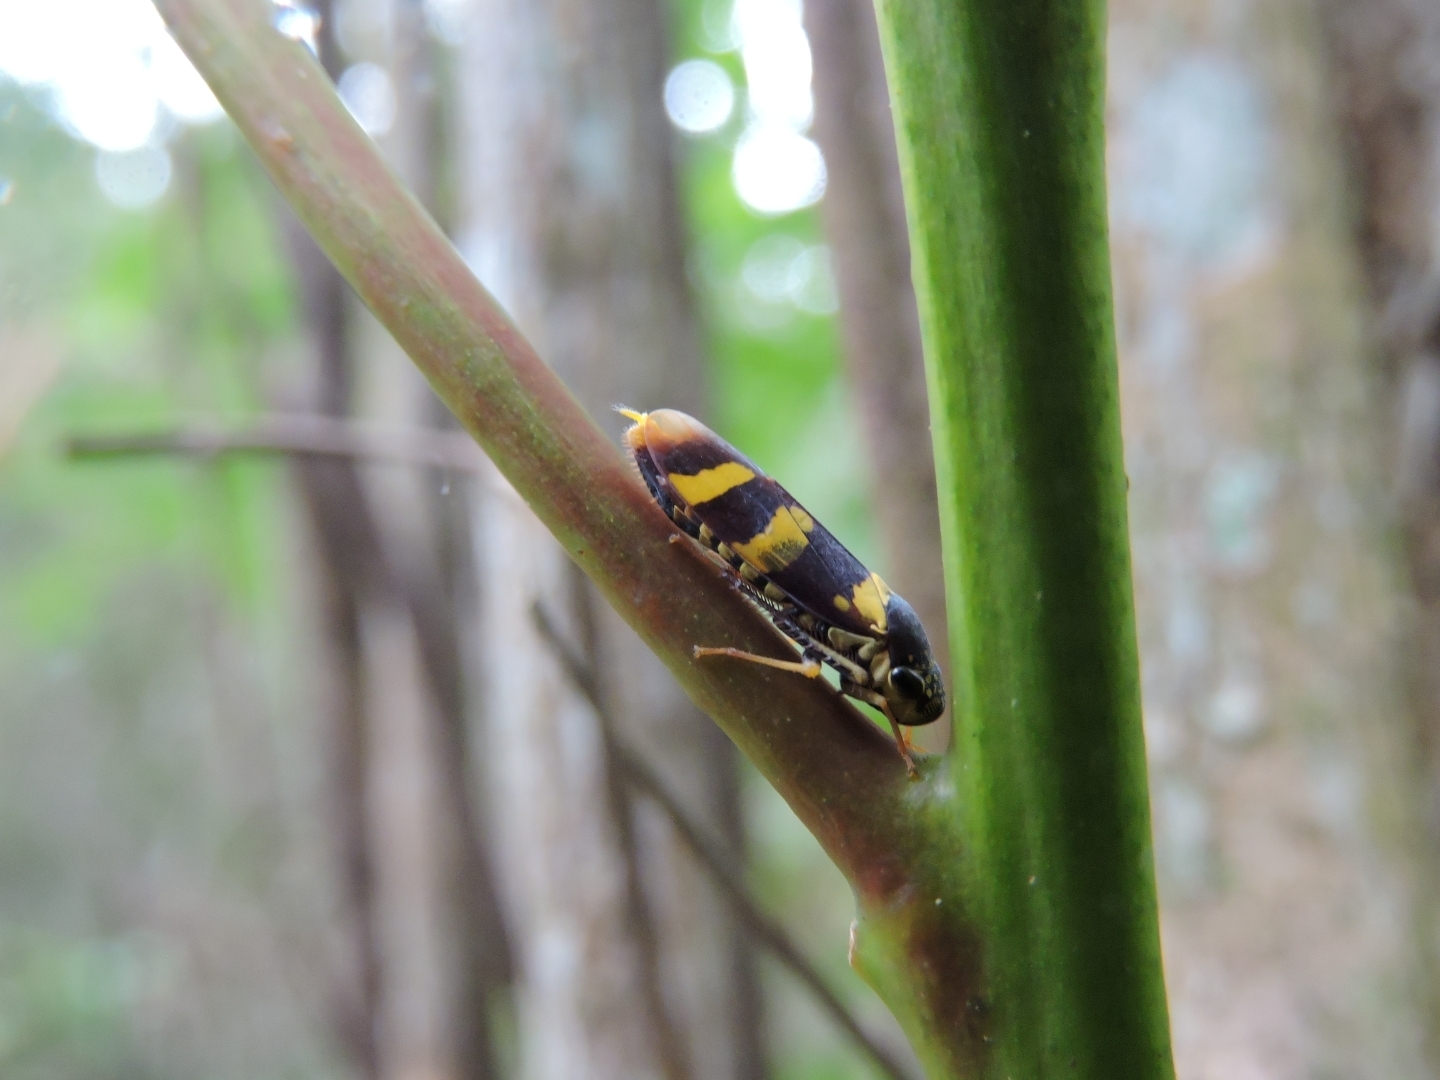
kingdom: Animalia
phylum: Arthropoda
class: Insecta
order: Hemiptera
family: Cicadellidae
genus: Dilobopterus
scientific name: Dilobopterus trinotatus
